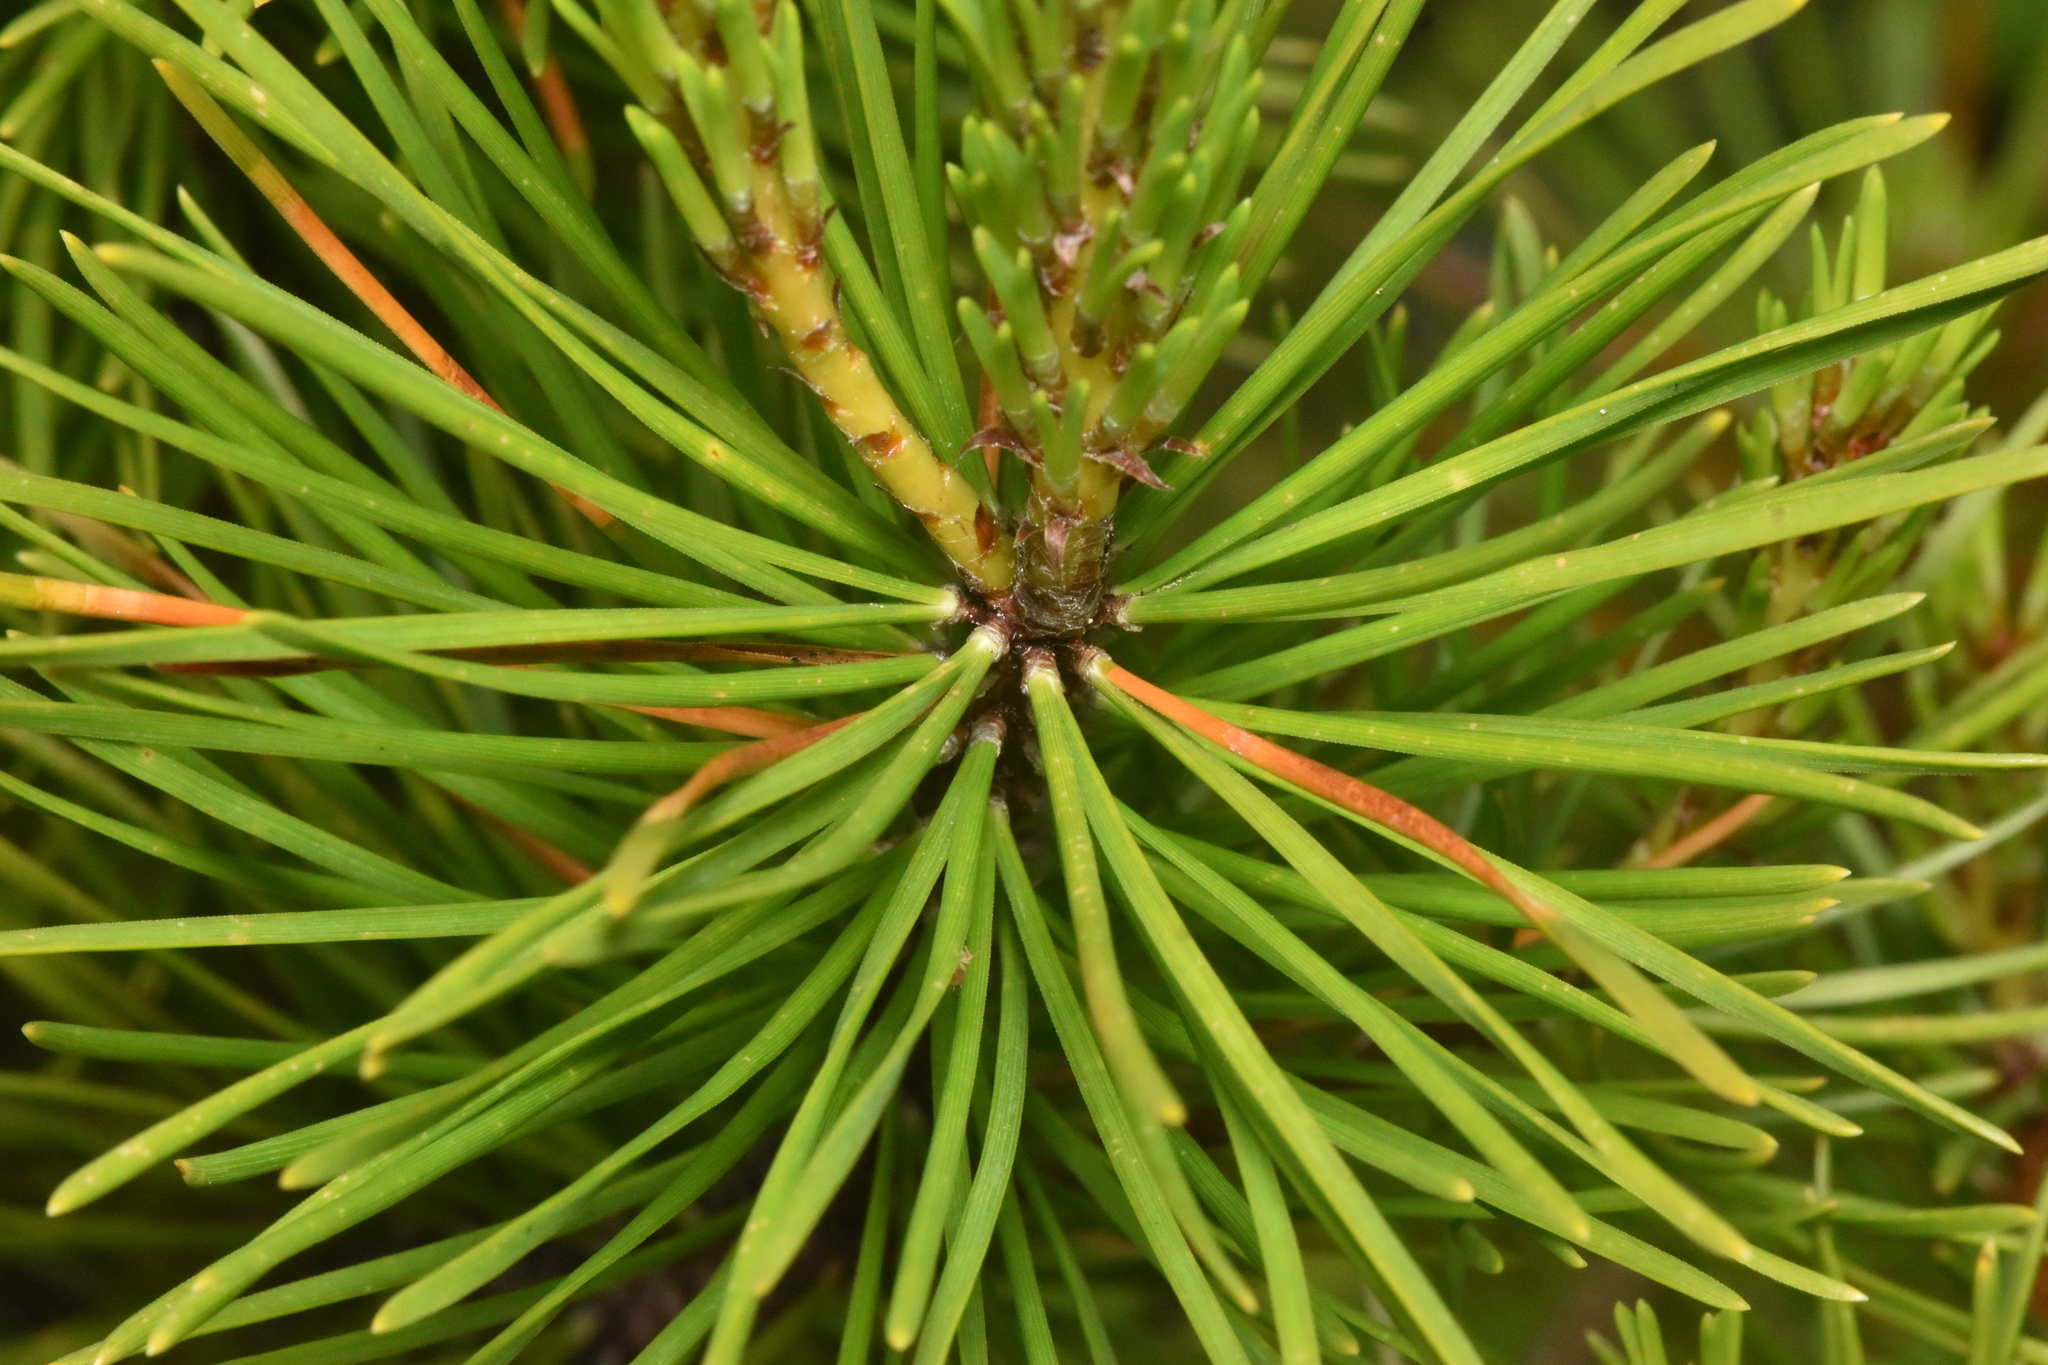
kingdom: Plantae
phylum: Tracheophyta
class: Pinopsida
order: Pinales
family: Pinaceae
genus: Pinus
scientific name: Pinus contorta
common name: Lodgepole pine
